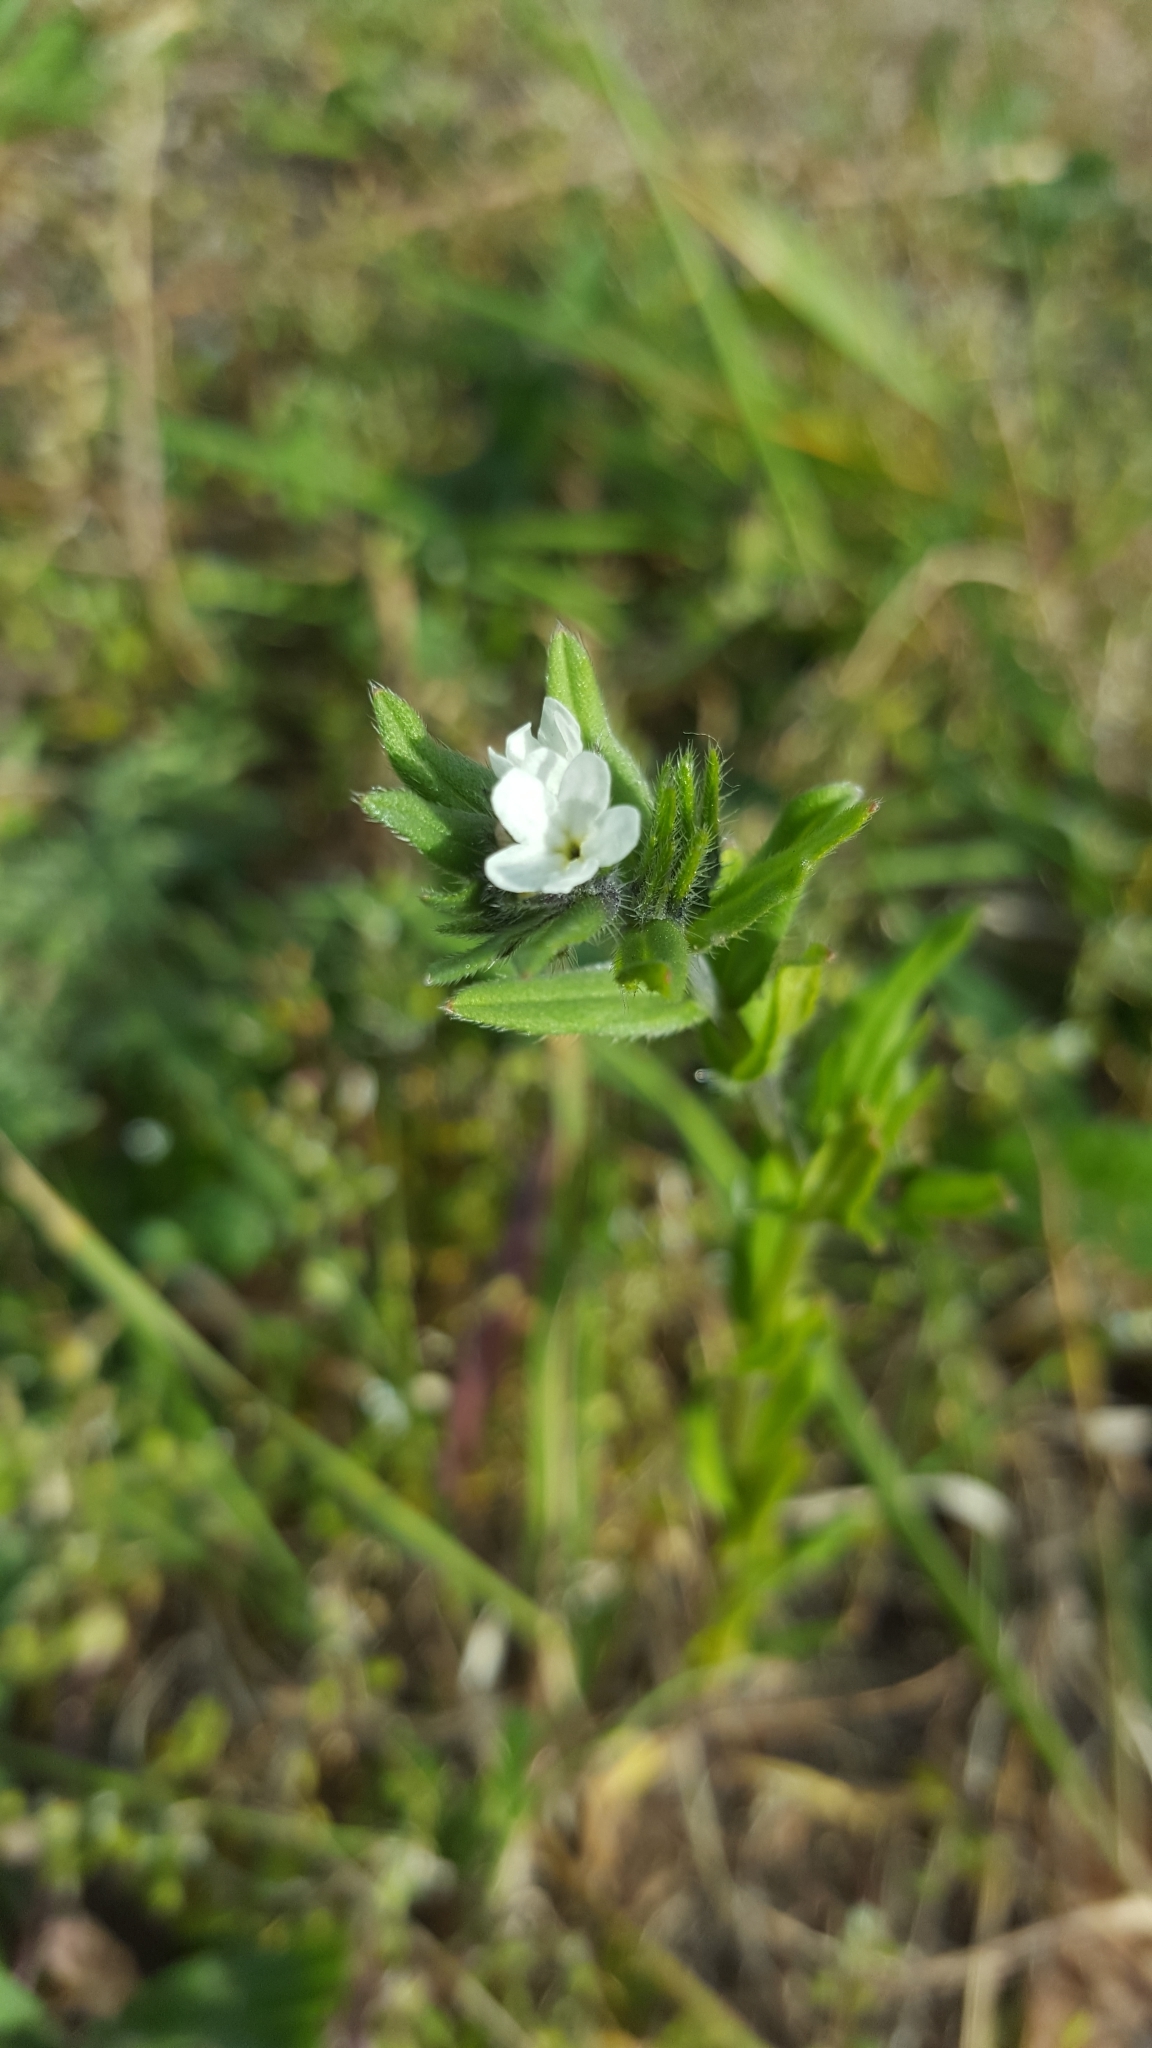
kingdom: Plantae
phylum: Tracheophyta
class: Magnoliopsida
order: Boraginales
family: Boraginaceae
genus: Buglossoides
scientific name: Buglossoides arvensis
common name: Corn gromwell
